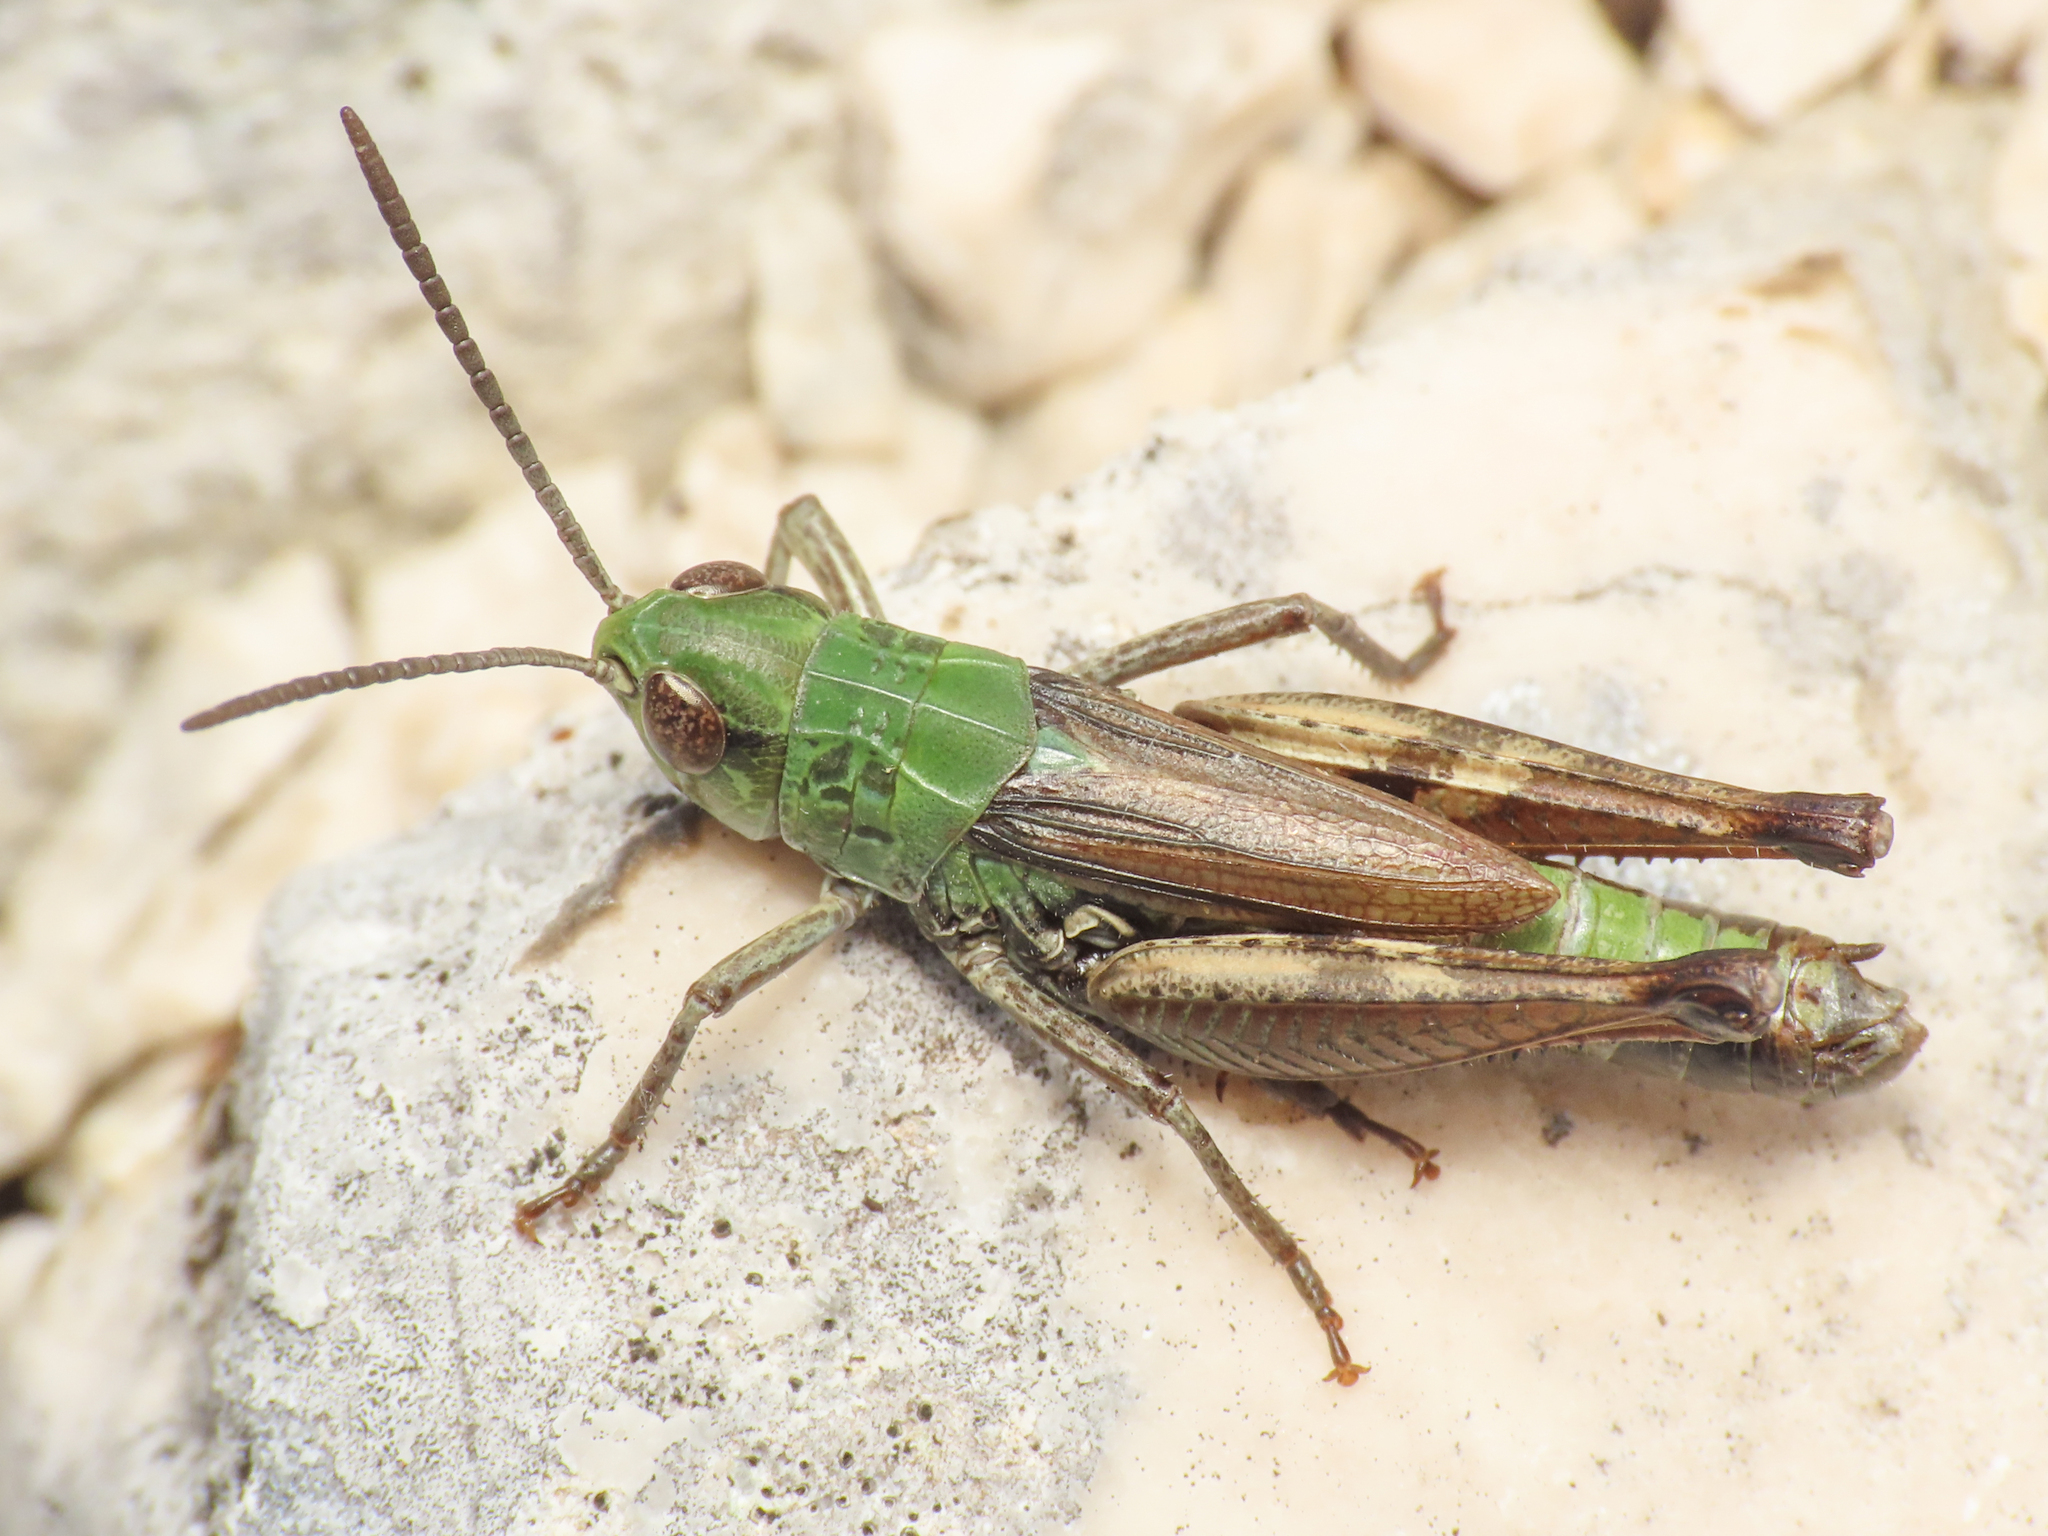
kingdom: Animalia
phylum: Arthropoda
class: Insecta
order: Orthoptera
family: Acrididae
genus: Stenobothrus
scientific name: Stenobothrus apenninus
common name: Apennine grasshopper
